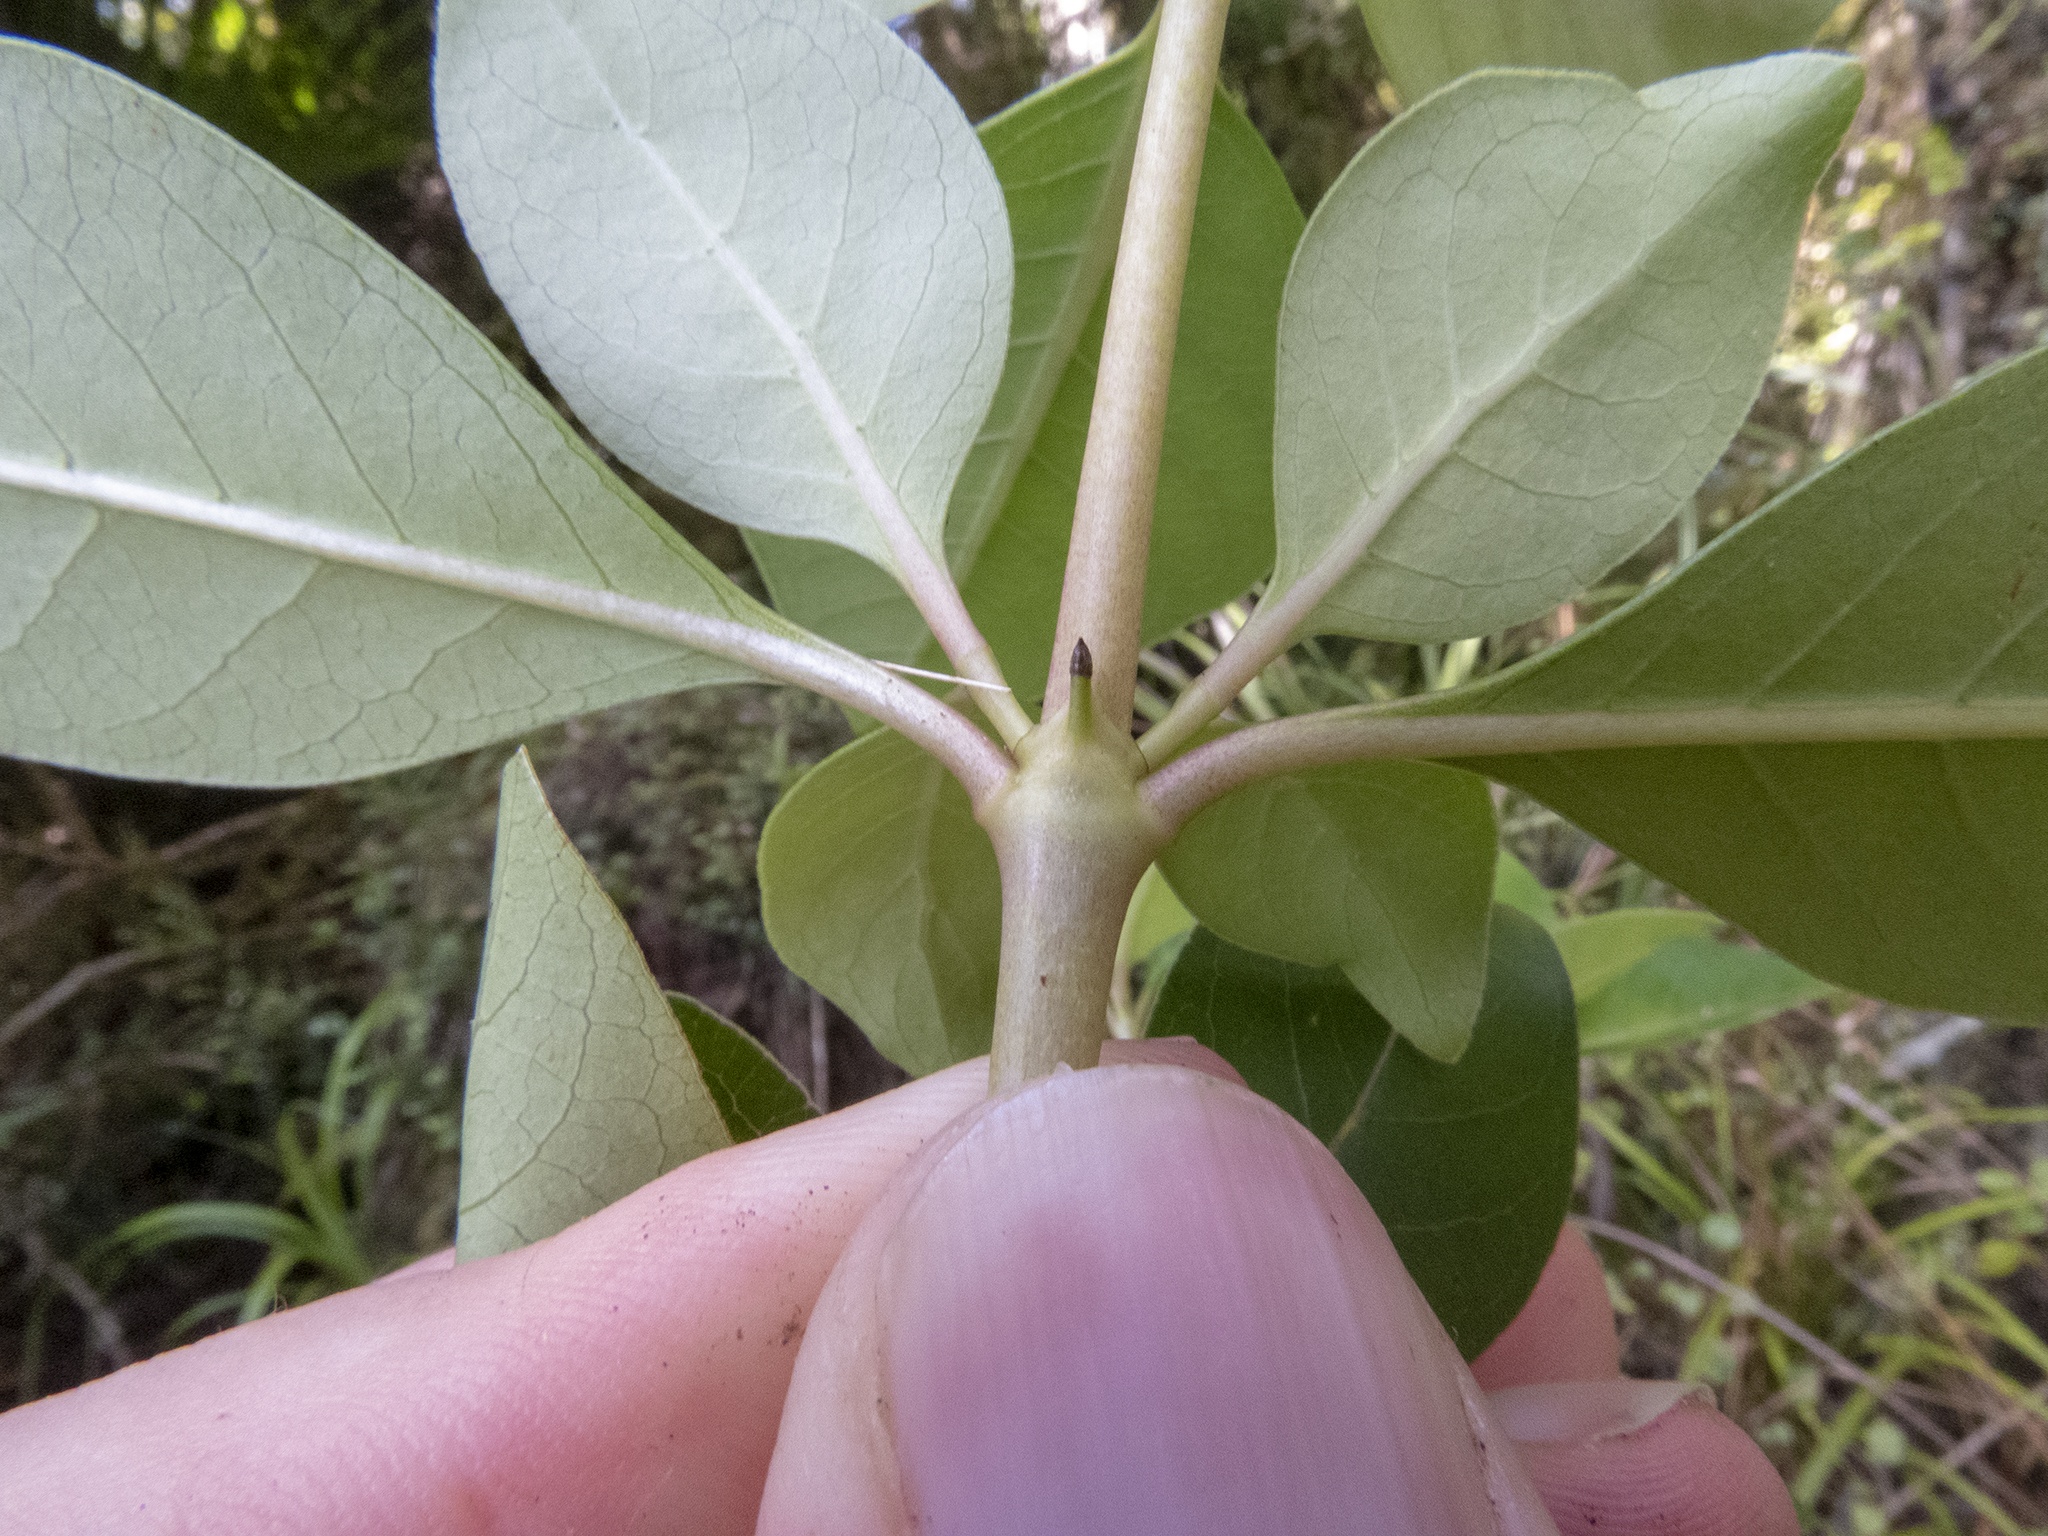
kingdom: Plantae
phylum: Tracheophyta
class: Magnoliopsida
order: Gentianales
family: Rubiaceae
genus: Coprosma
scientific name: Coprosma robusta
